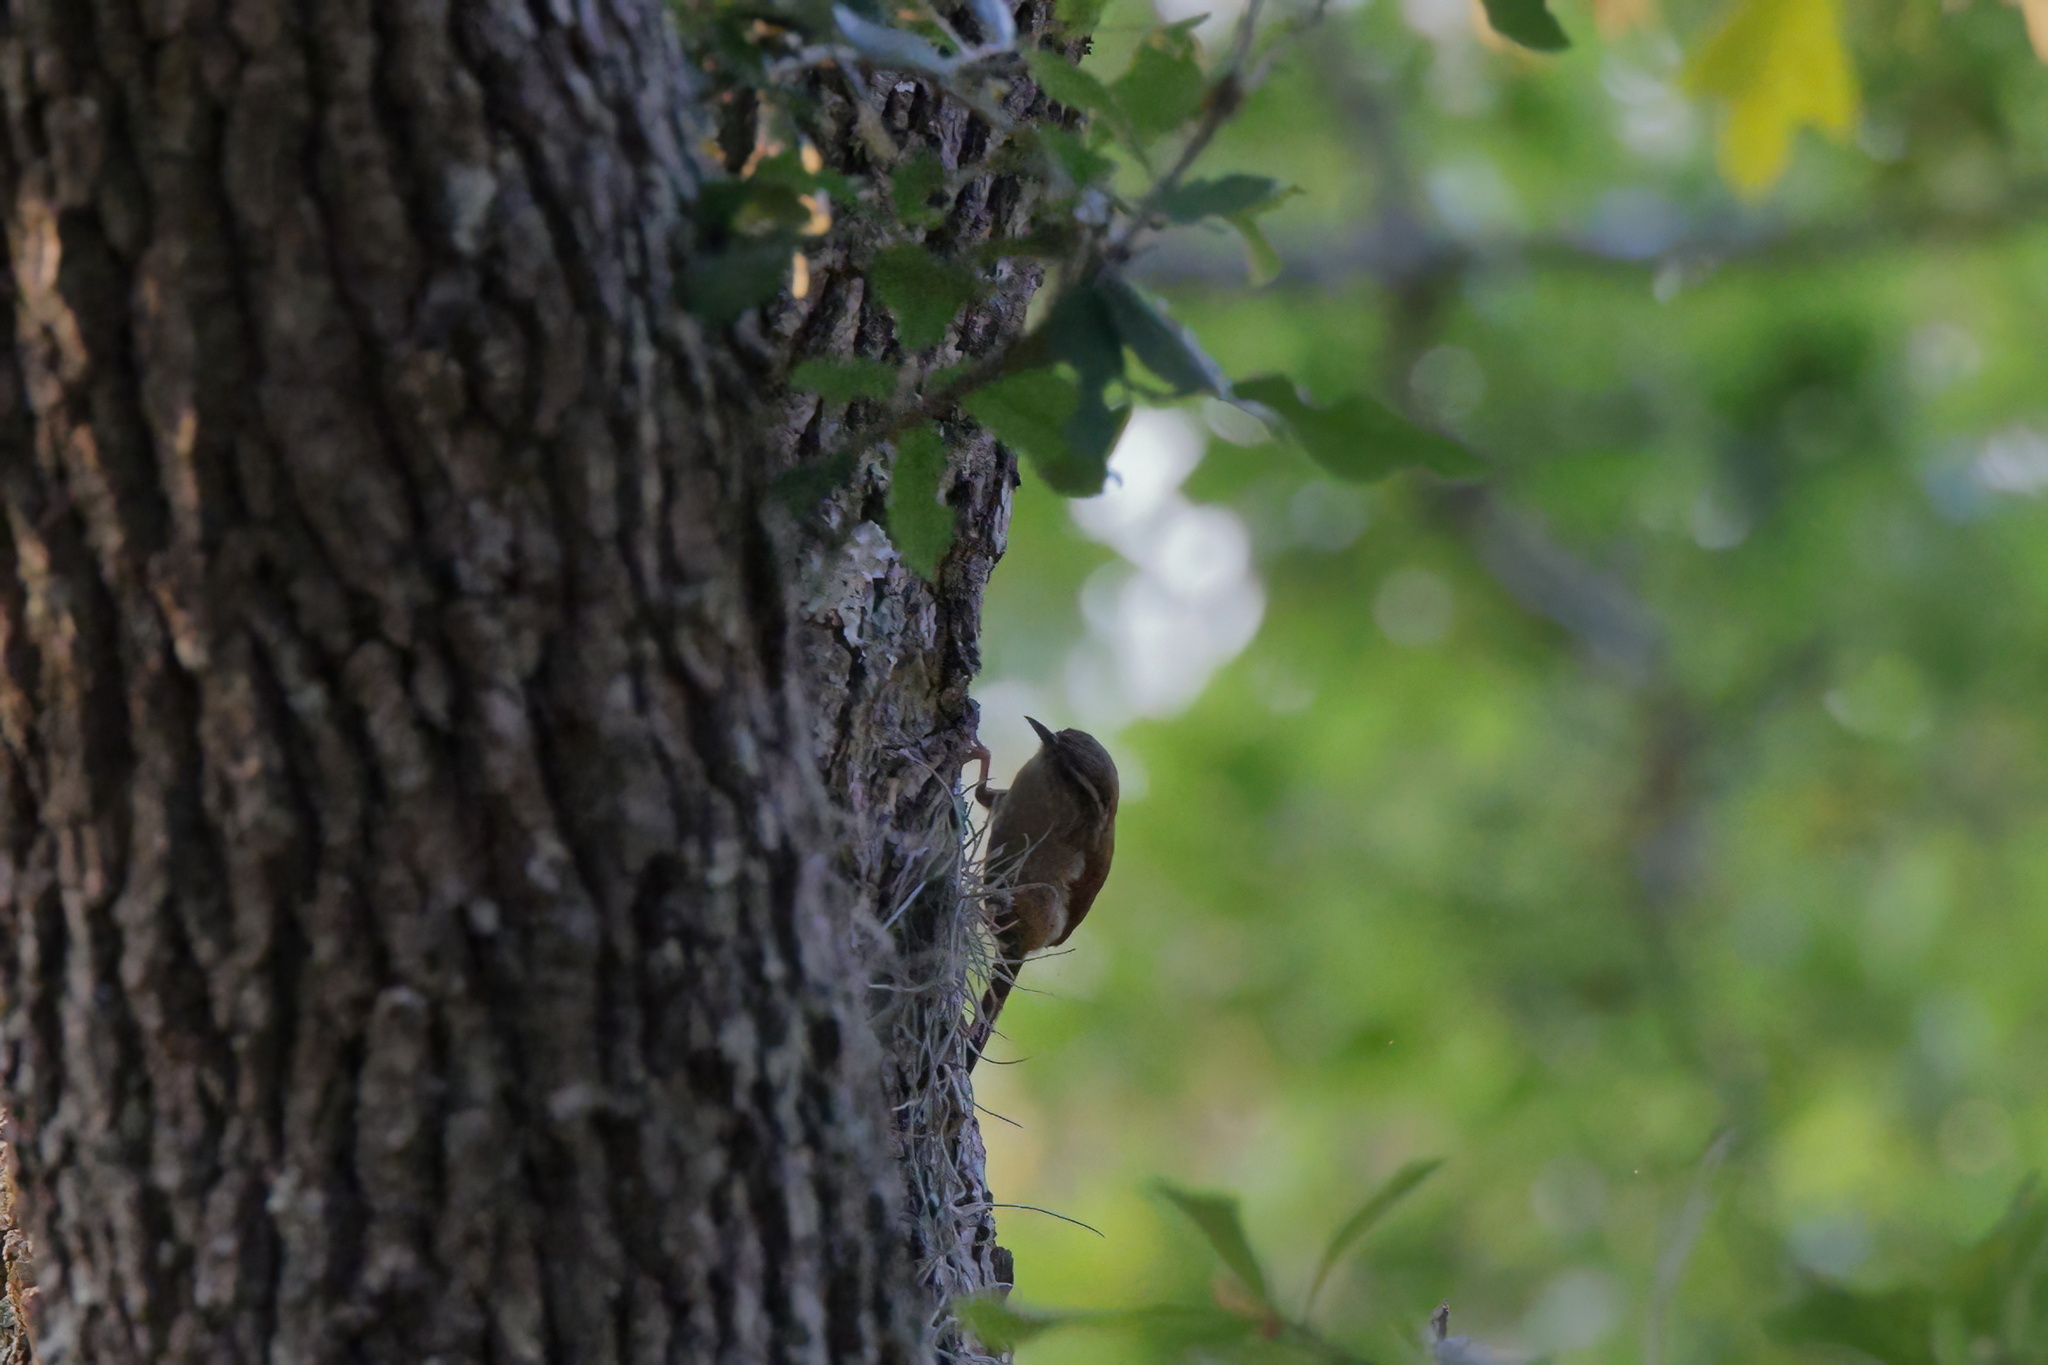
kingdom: Animalia
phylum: Chordata
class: Aves
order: Passeriformes
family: Troglodytidae
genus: Thryothorus
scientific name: Thryothorus ludovicianus
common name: Carolina wren
